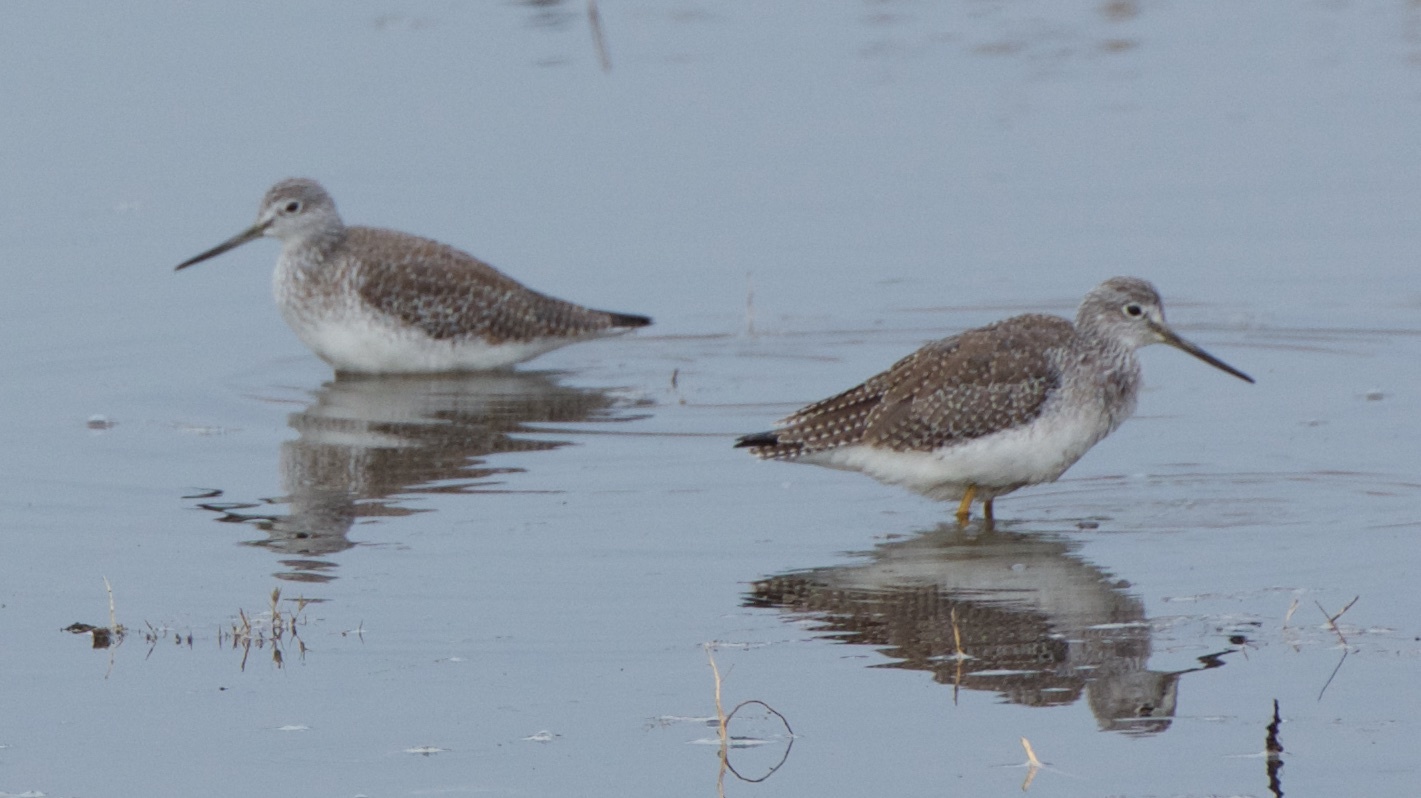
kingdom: Animalia
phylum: Chordata
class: Aves
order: Charadriiformes
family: Scolopacidae
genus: Tringa
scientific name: Tringa melanoleuca
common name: Greater yellowlegs
